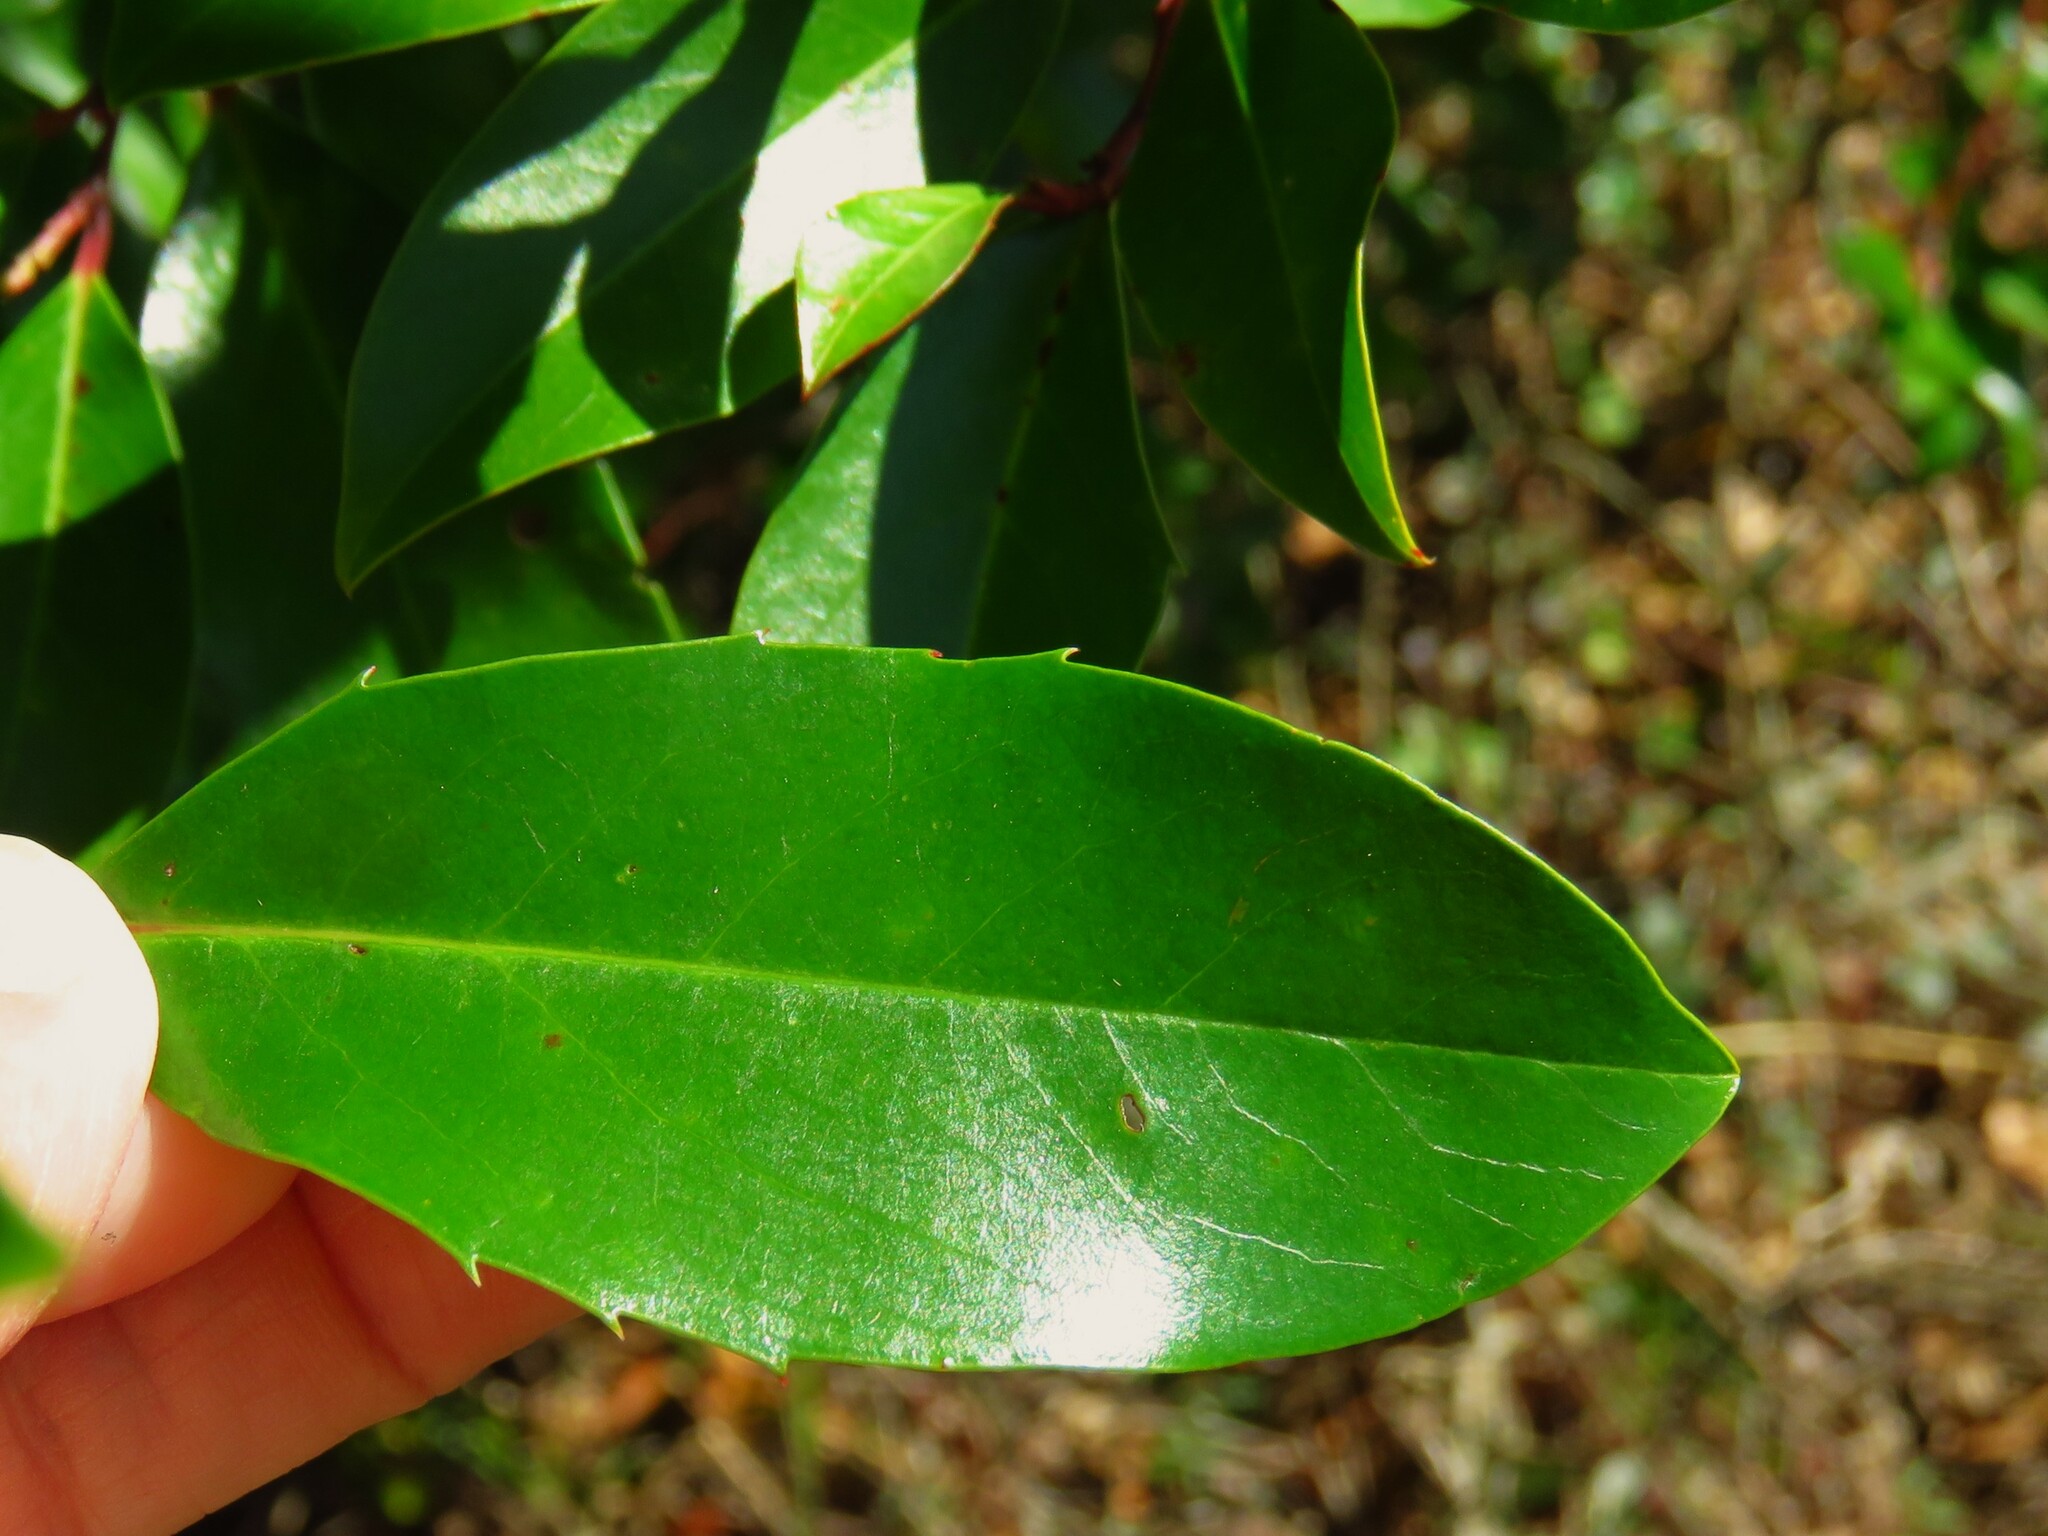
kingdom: Plantae
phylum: Tracheophyta
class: Magnoliopsida
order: Rosales
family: Rosaceae
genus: Prunus
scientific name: Prunus caroliniana
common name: Carolina laurel cherry
